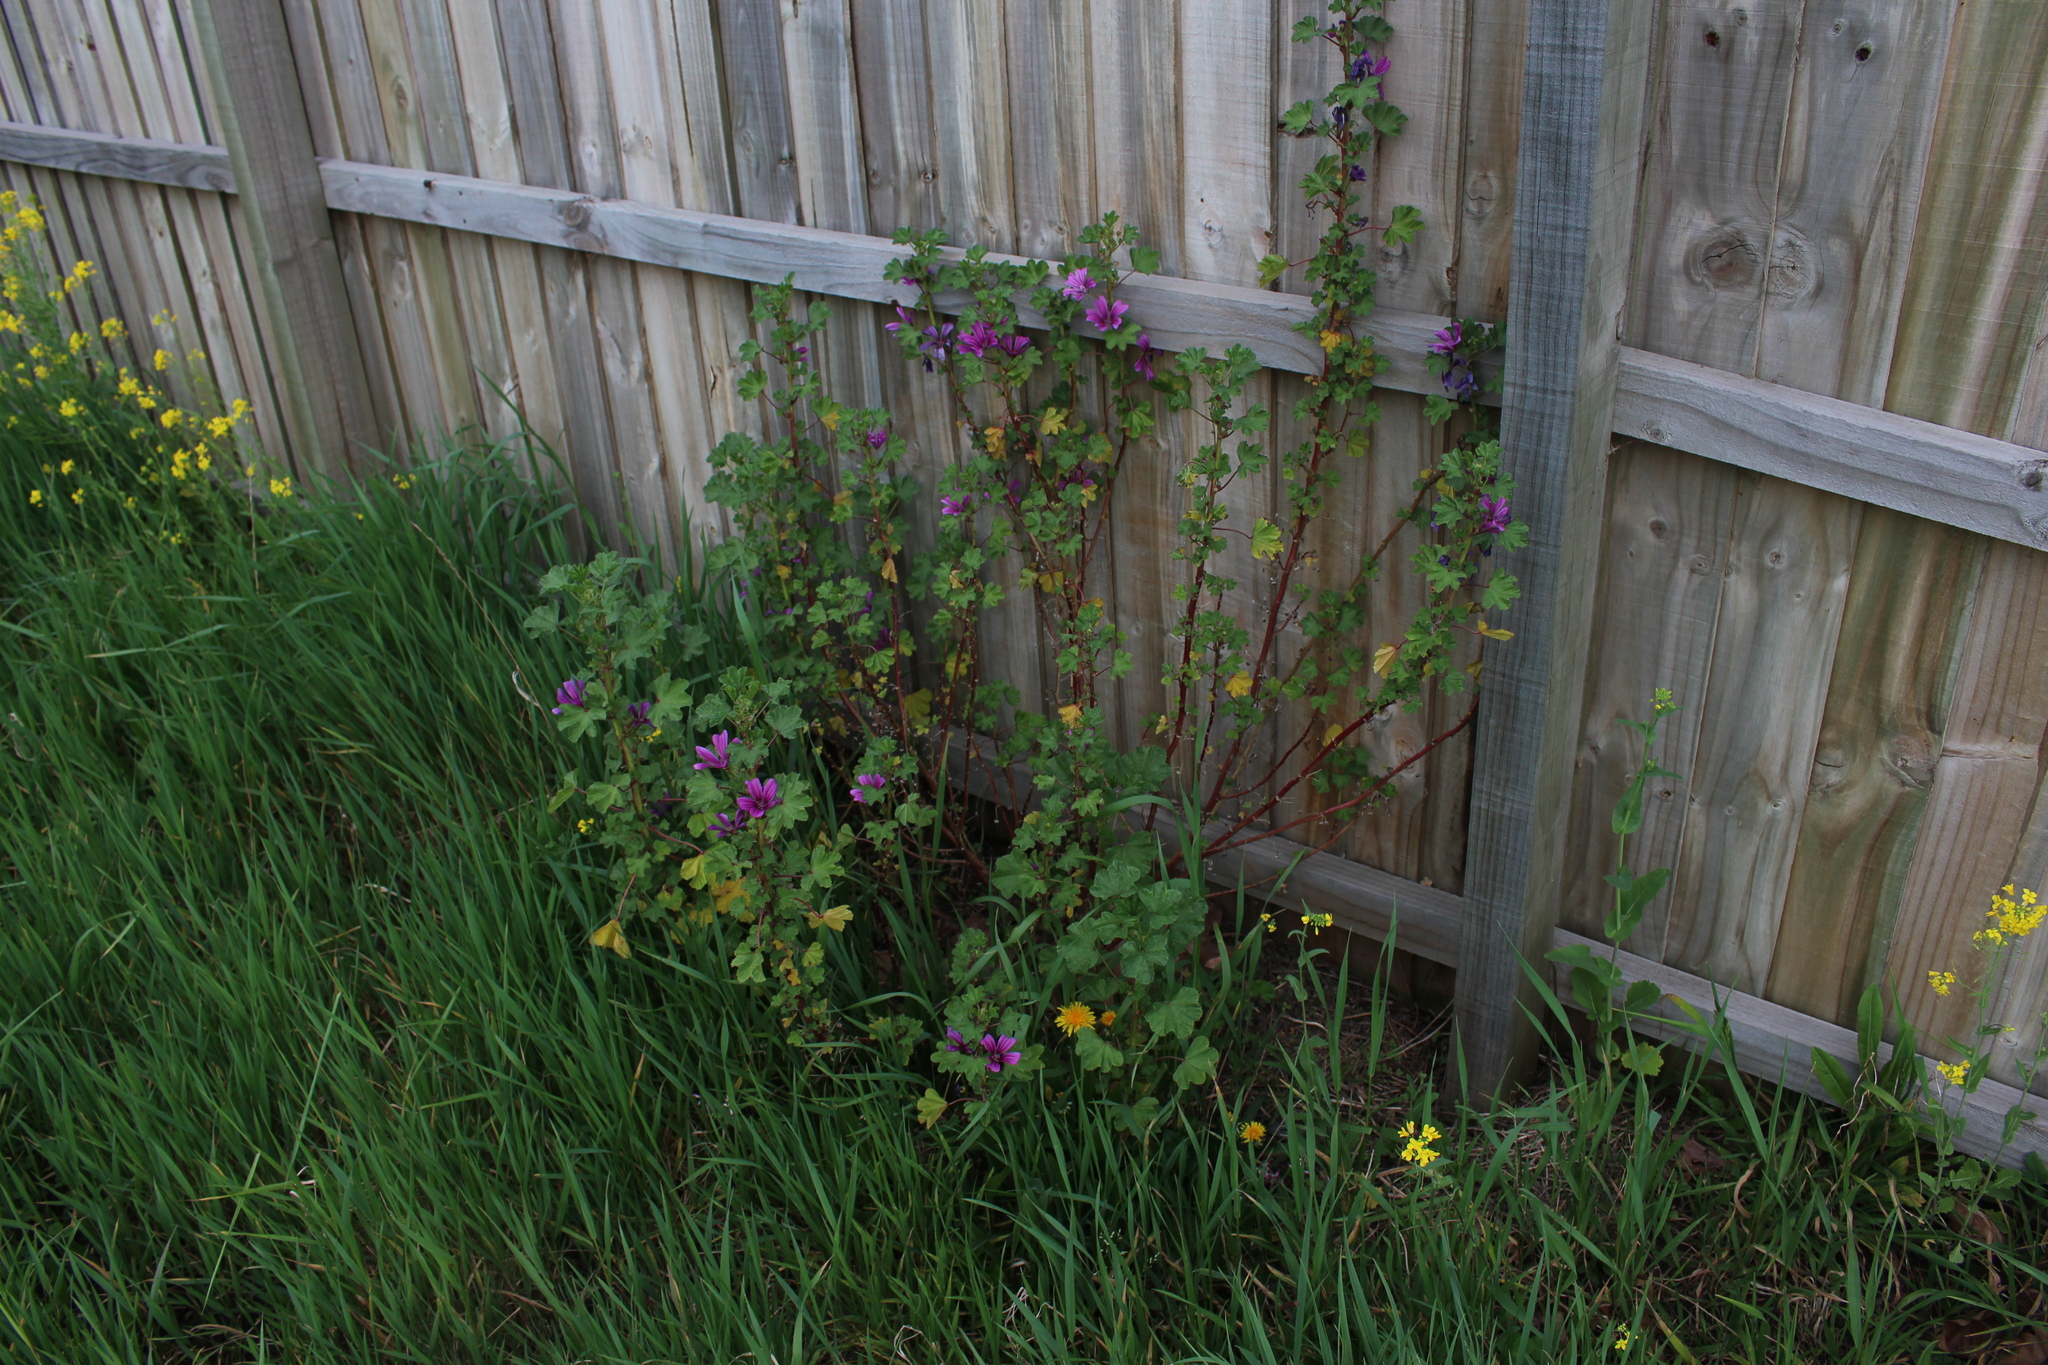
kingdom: Plantae
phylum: Tracheophyta
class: Magnoliopsida
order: Malvales
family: Malvaceae
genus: Malva
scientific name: Malva sylvestris
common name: Common mallow
